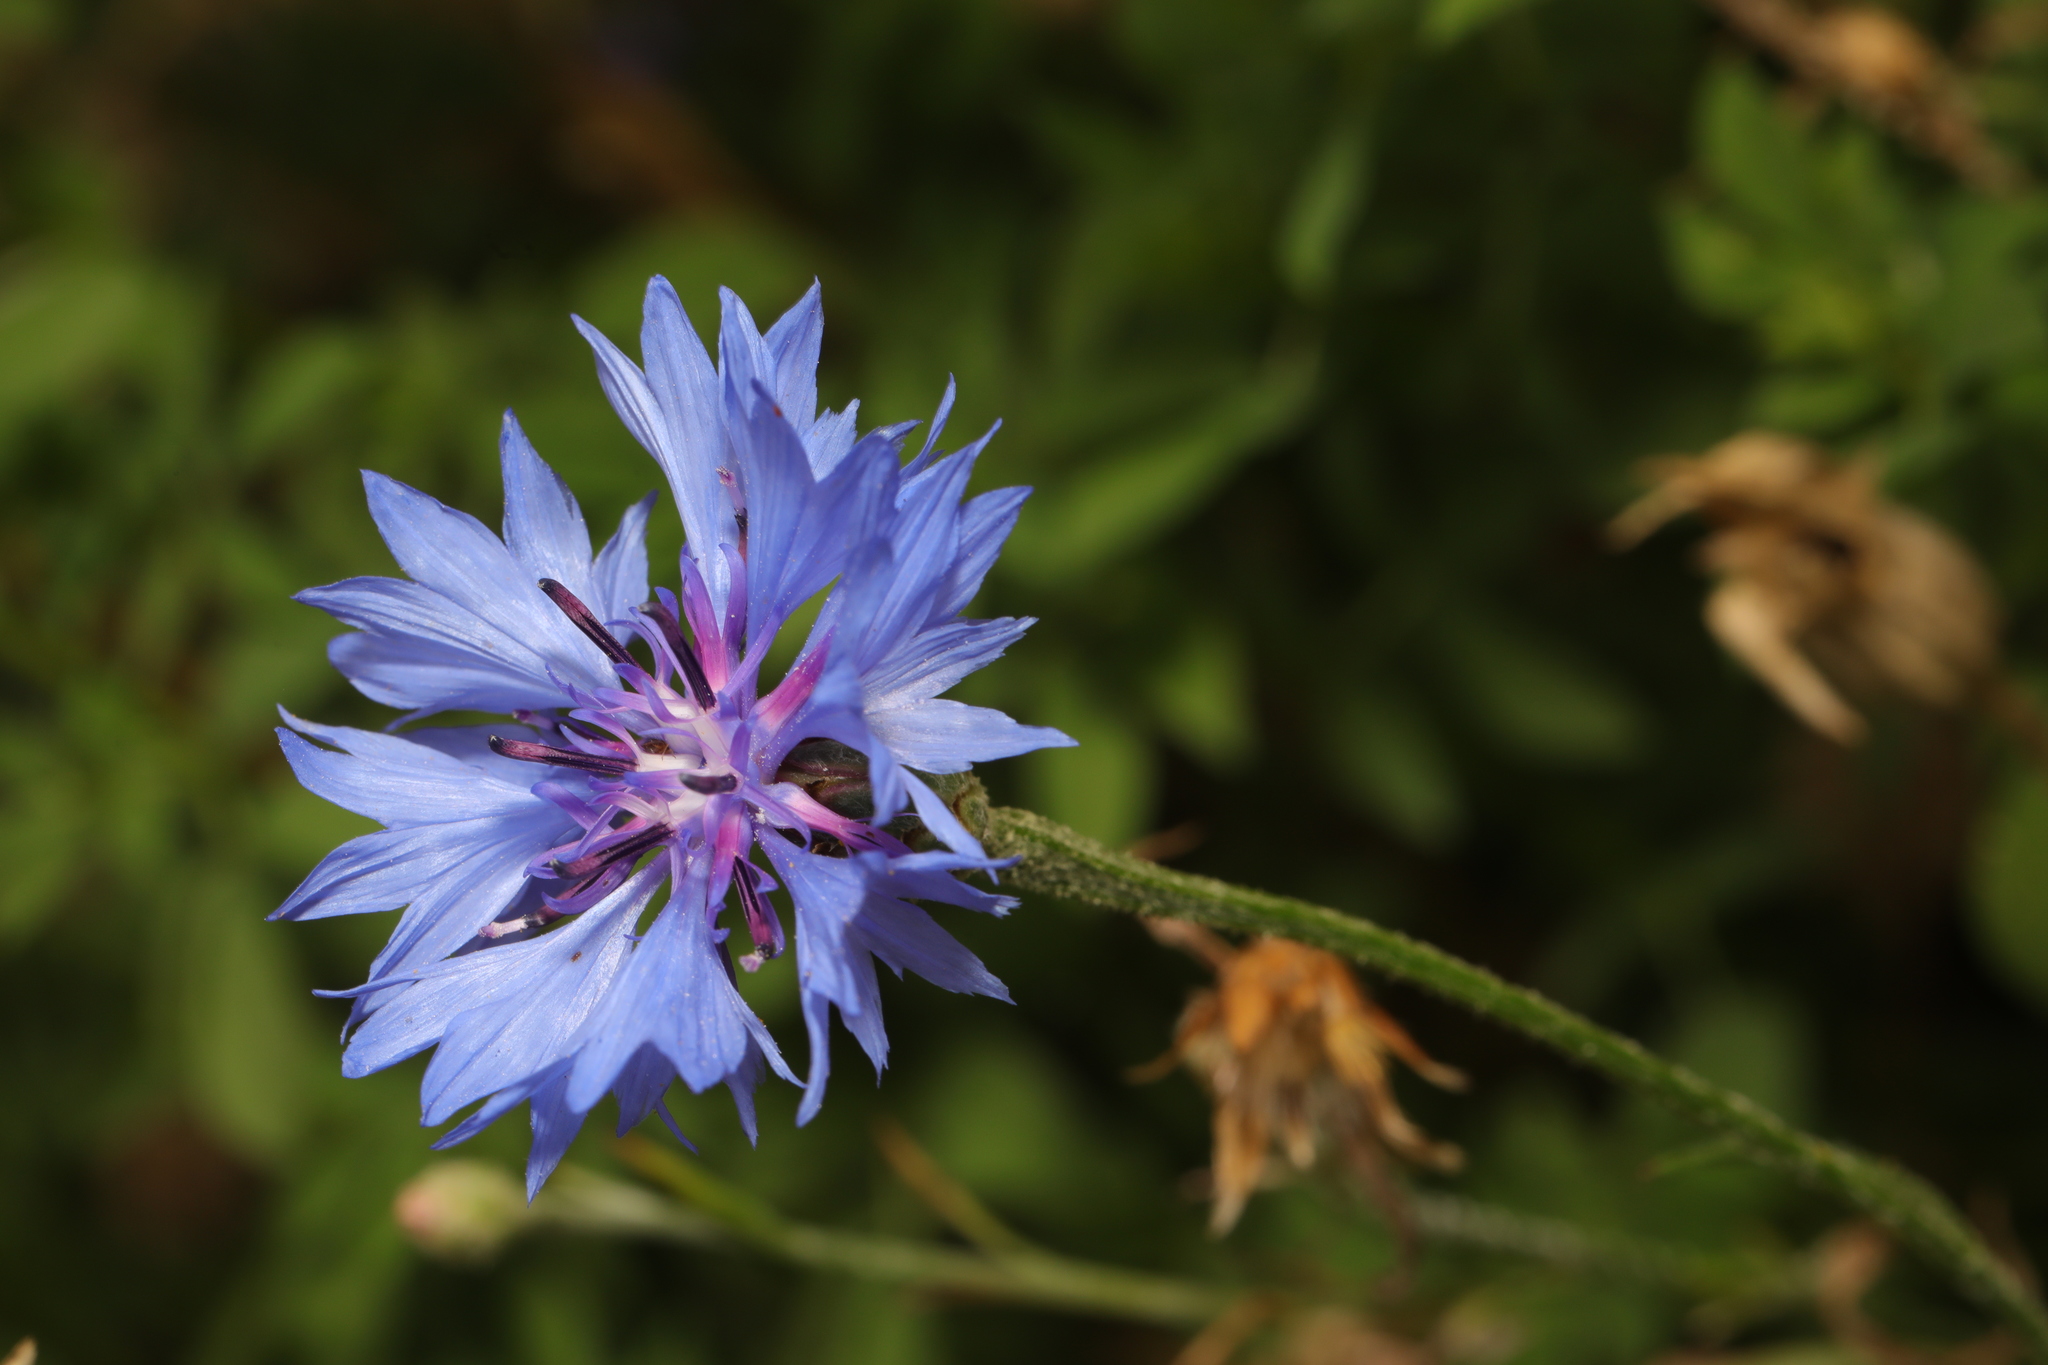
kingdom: Plantae
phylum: Tracheophyta
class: Magnoliopsida
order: Asterales
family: Asteraceae
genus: Centaurea
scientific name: Centaurea cyanus
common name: Cornflower
